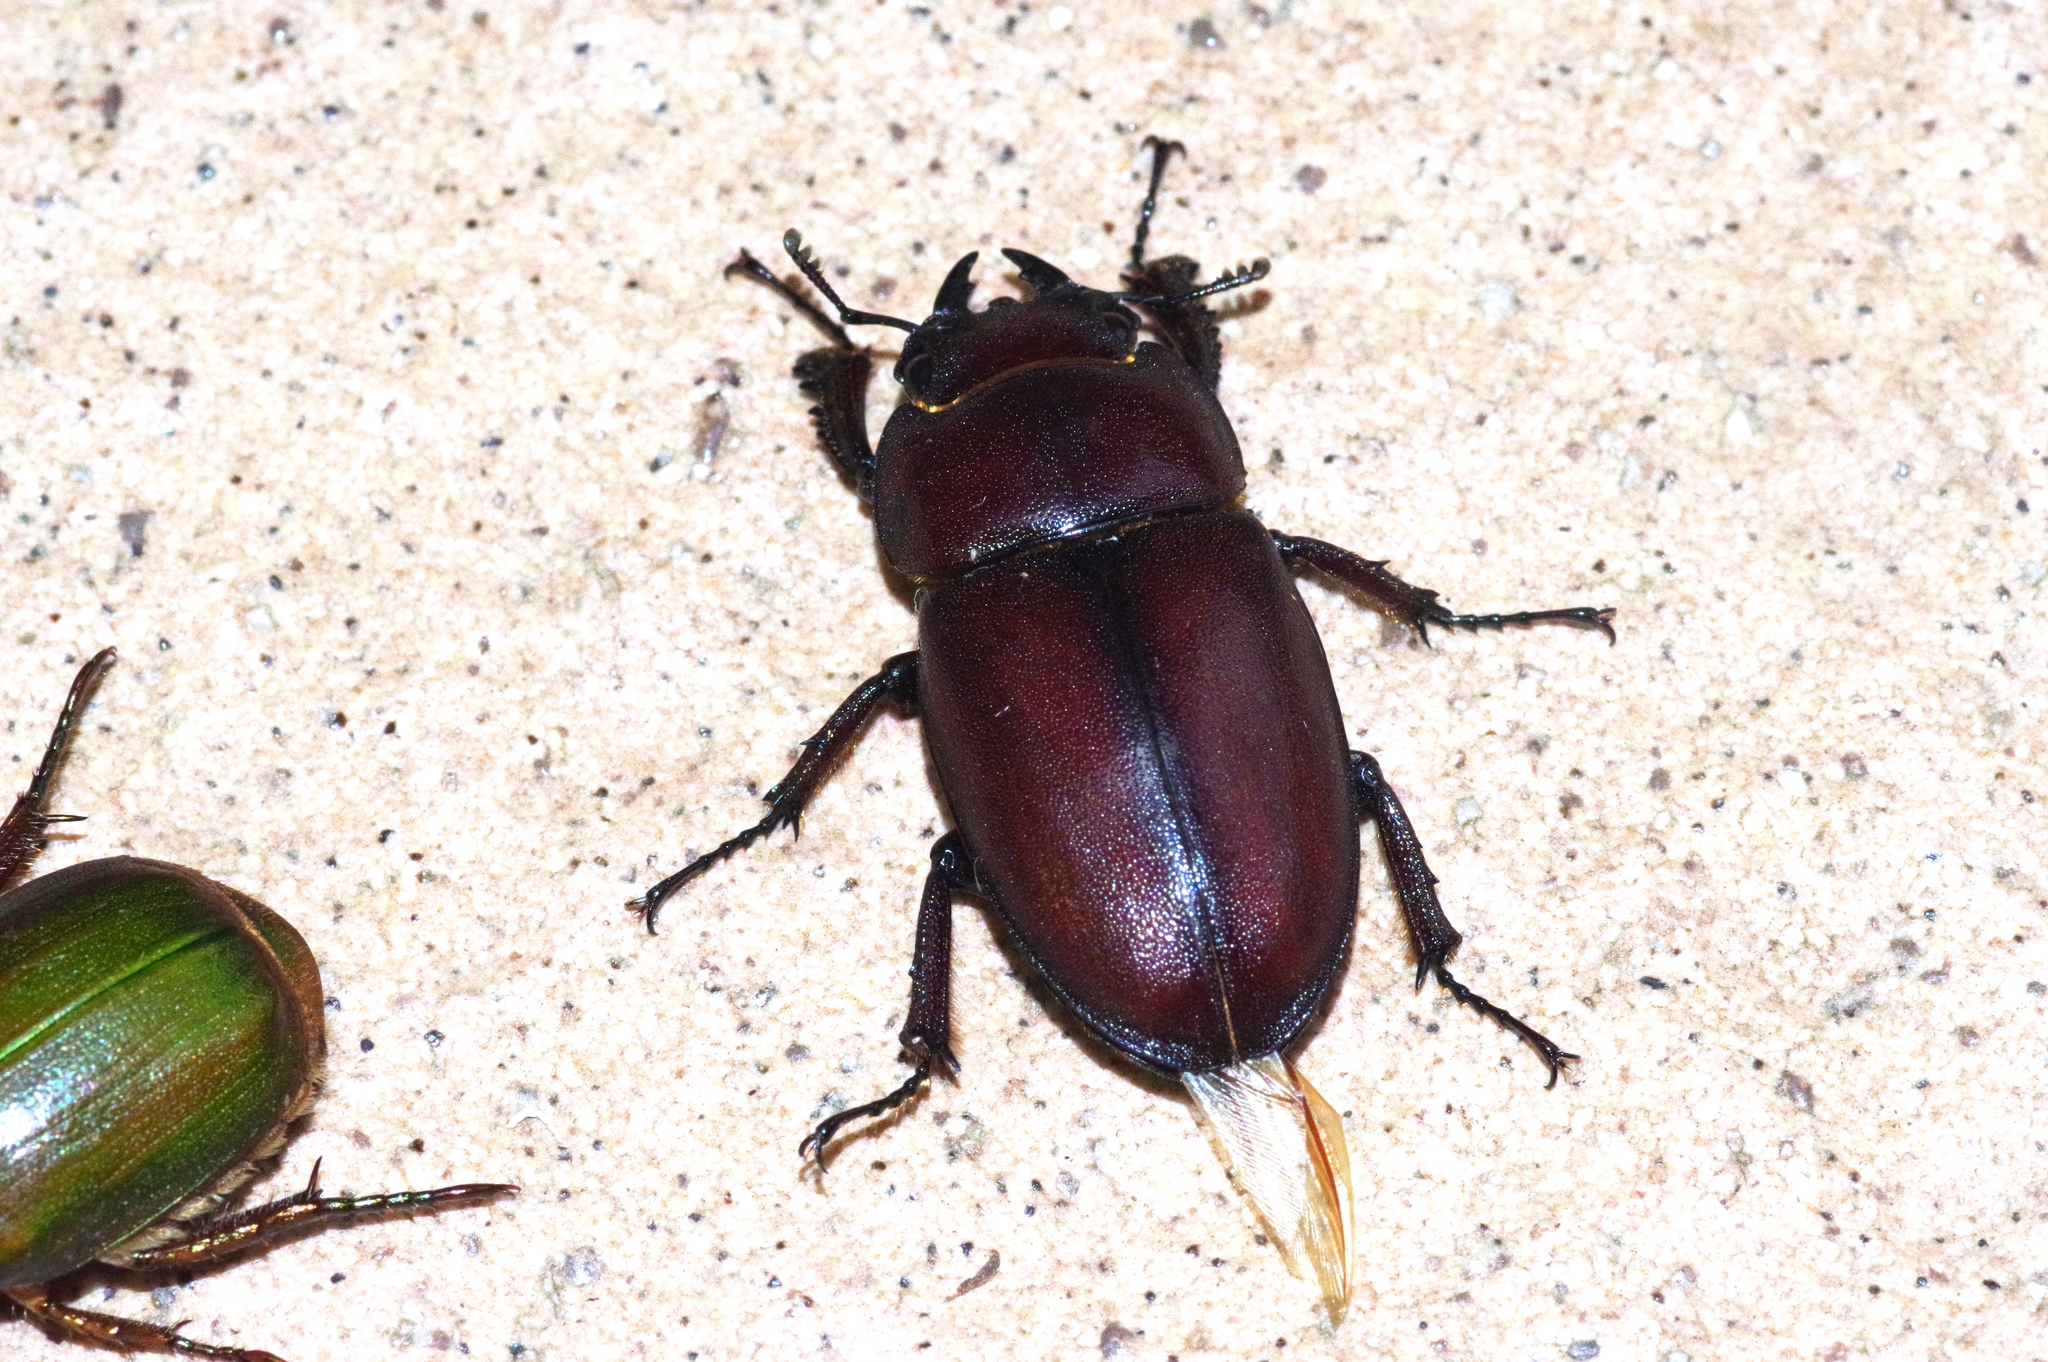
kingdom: Animalia
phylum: Arthropoda
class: Insecta
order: Coleoptera
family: Lucanidae
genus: Prosopocoilus
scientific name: Prosopocoilus dissimilis
